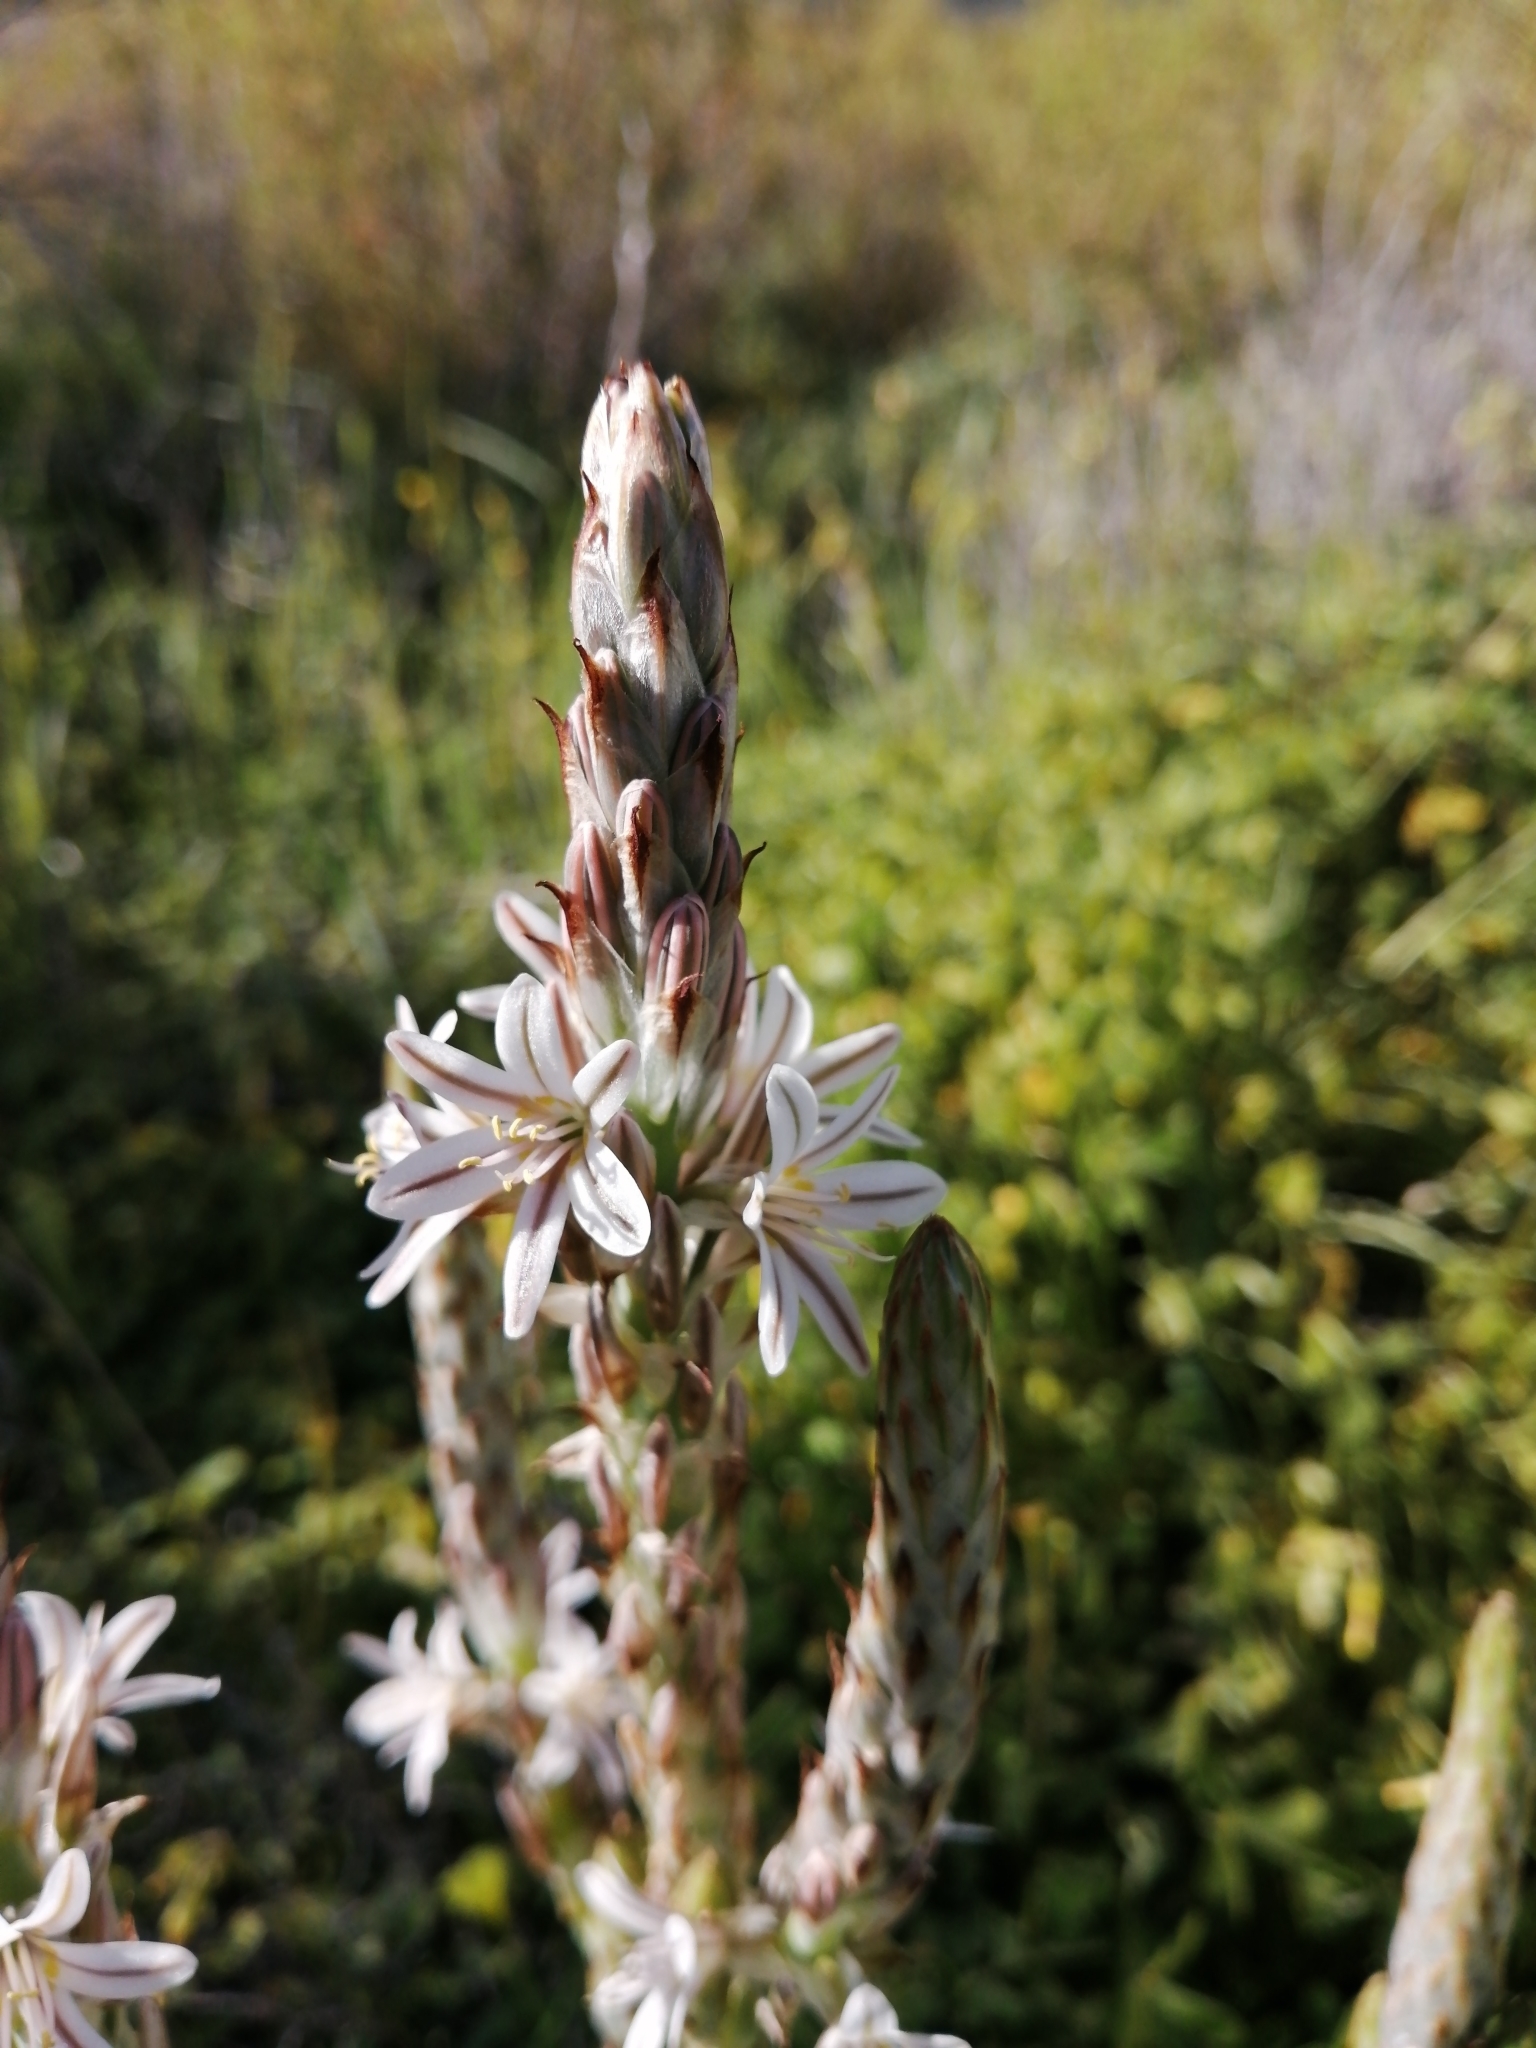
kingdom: Plantae
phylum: Tracheophyta
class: Liliopsida
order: Asparagales
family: Asphodelaceae
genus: Trachyandra
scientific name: Trachyandra falcata
